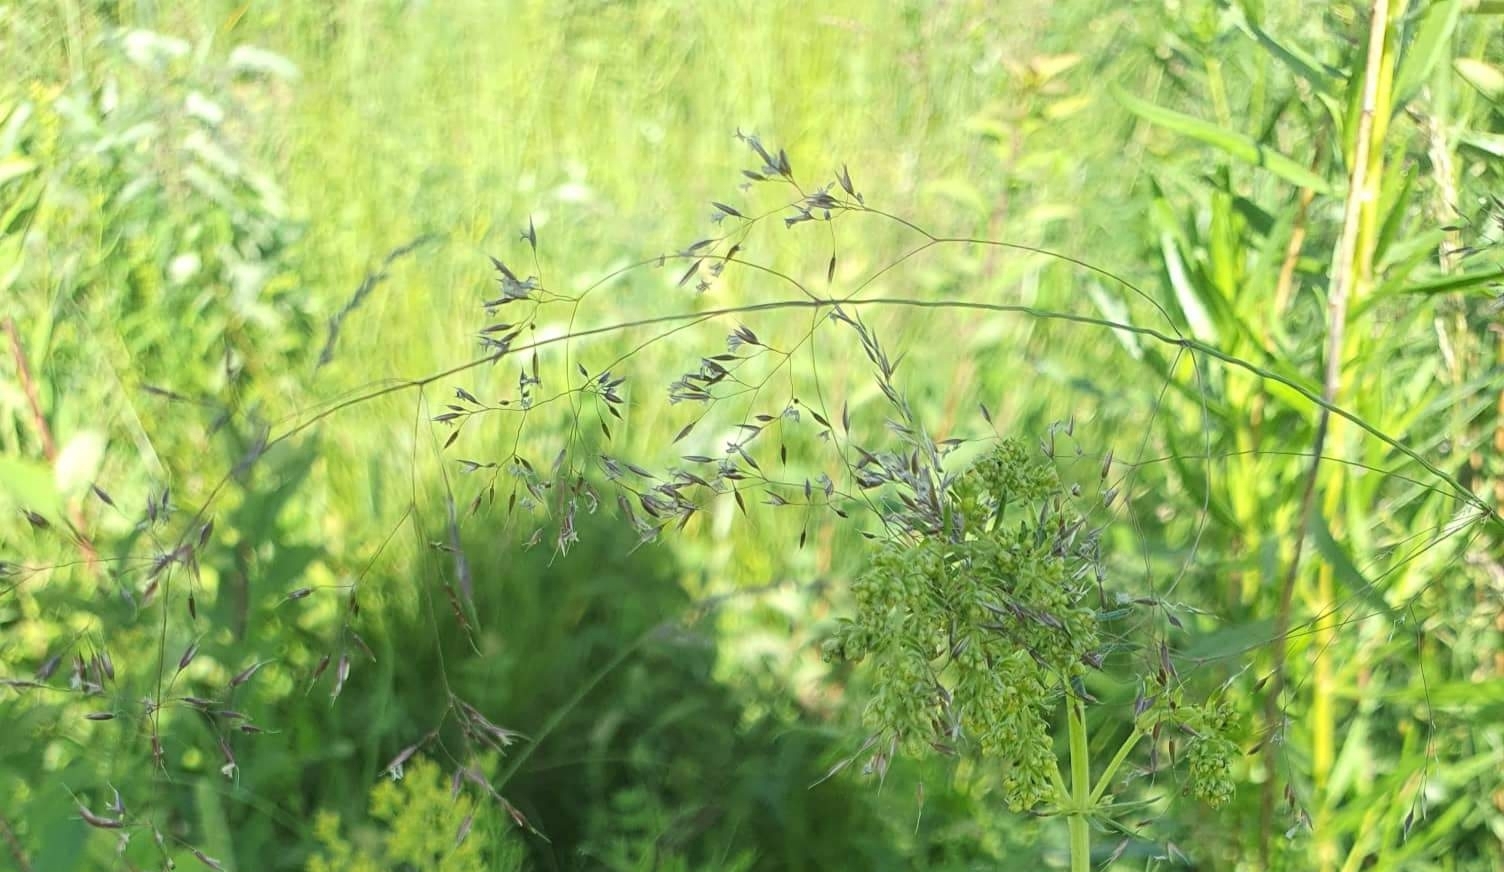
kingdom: Plantae
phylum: Tracheophyta
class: Liliopsida
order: Poales
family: Poaceae
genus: Poa
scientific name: Poa pratensis
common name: Kentucky bluegrass
